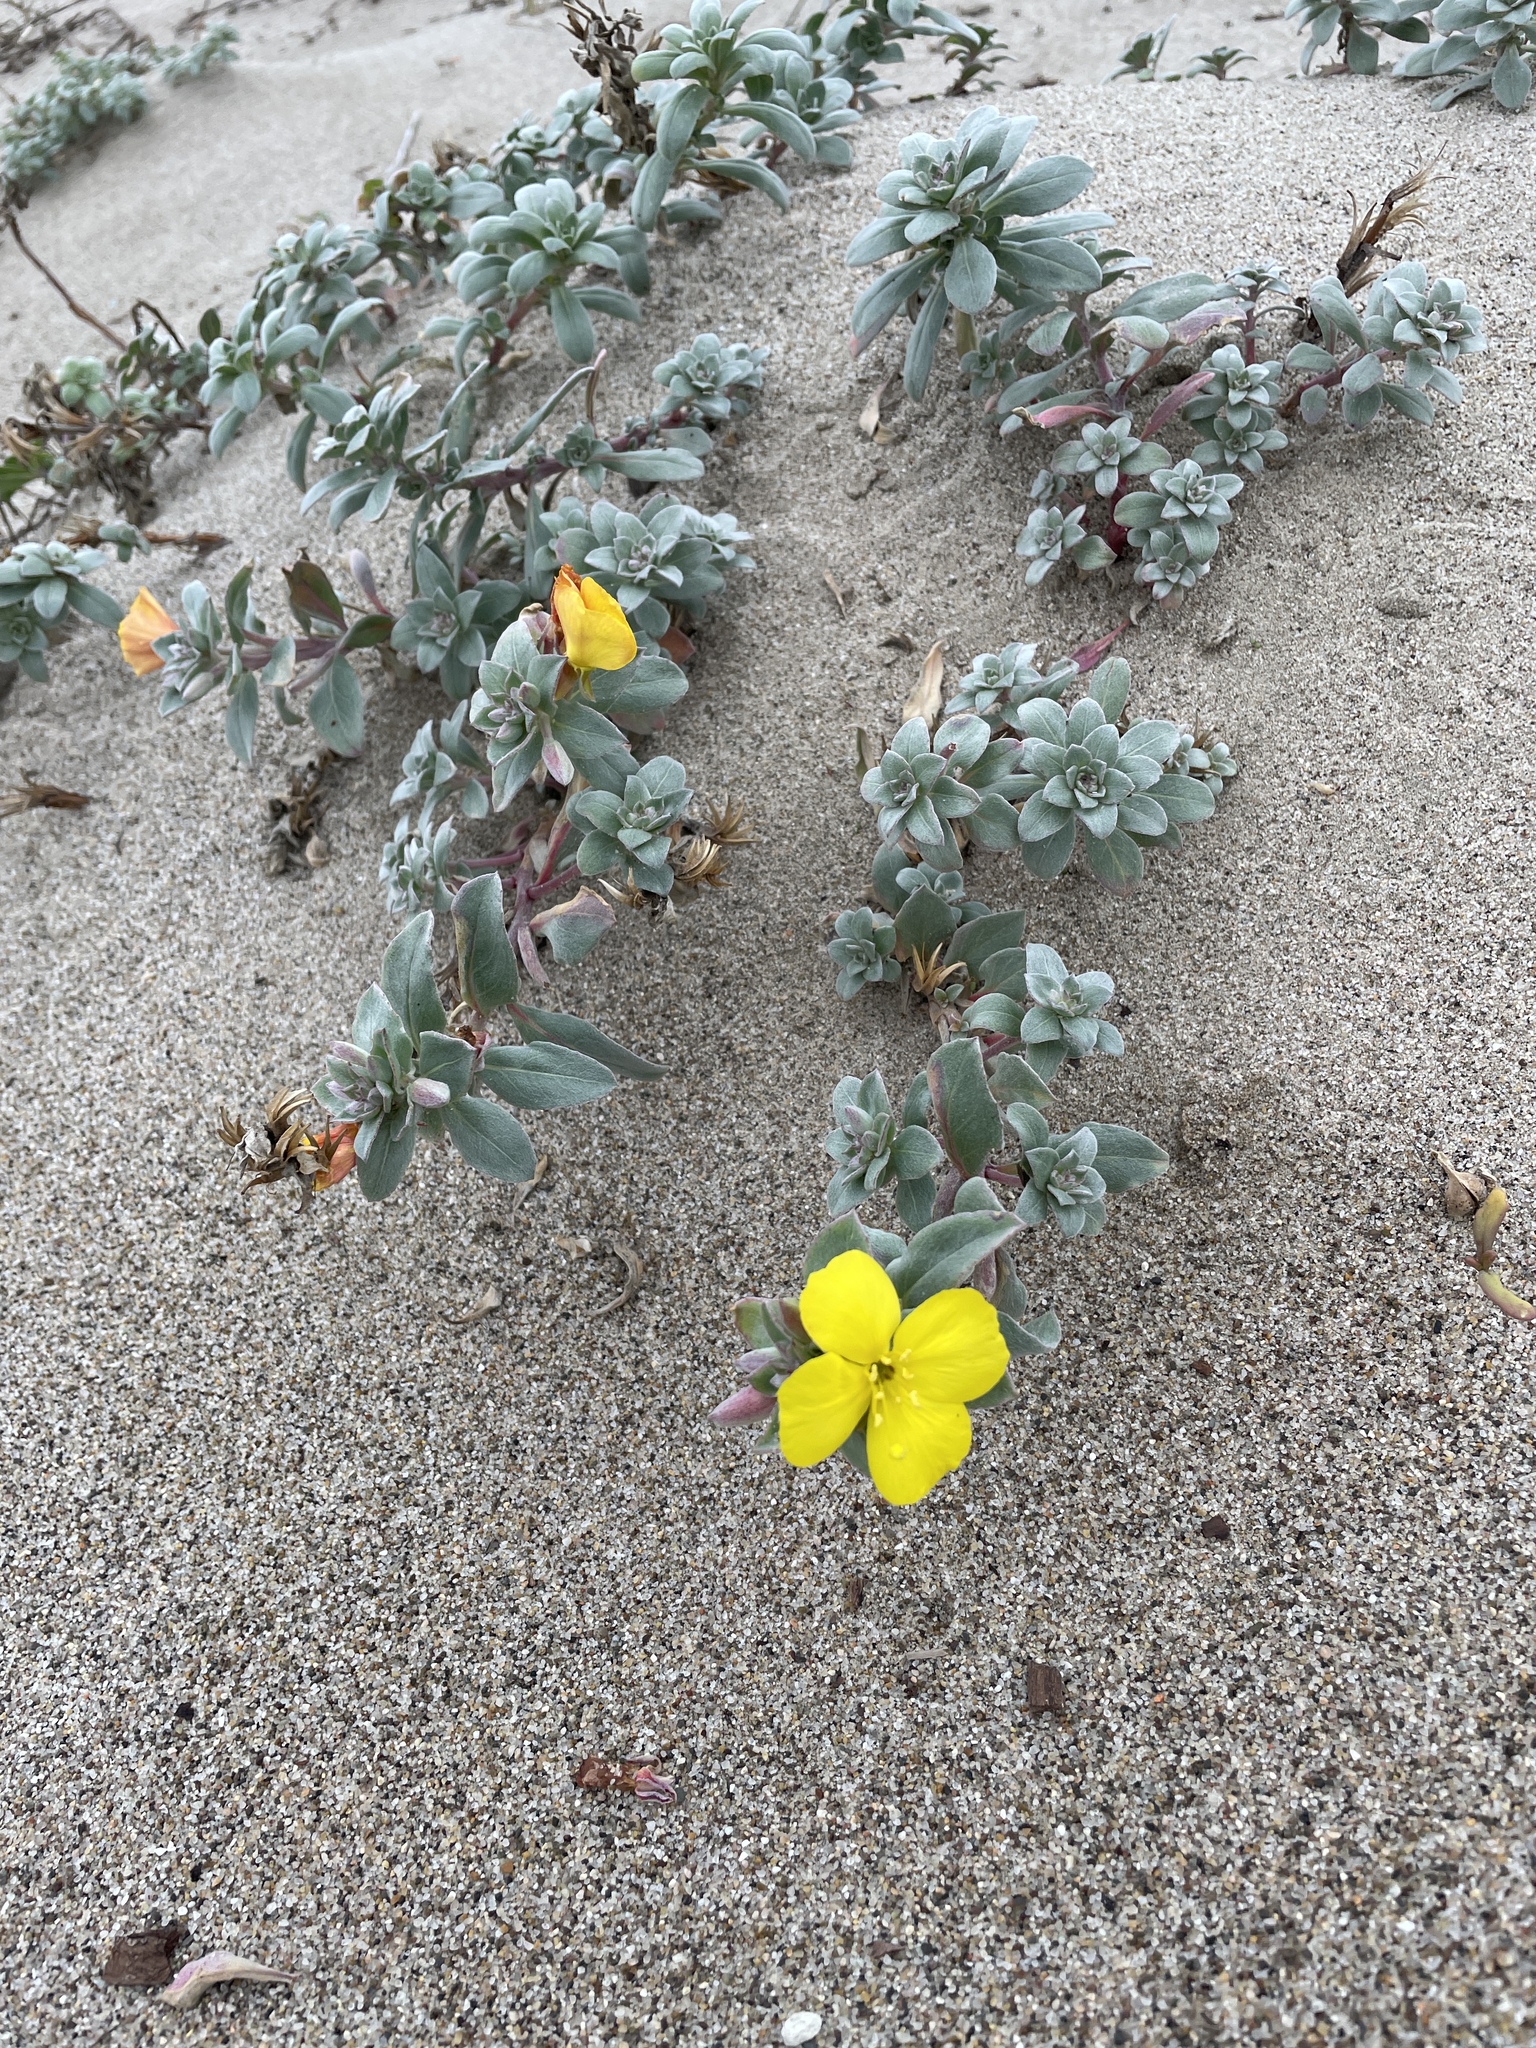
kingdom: Plantae
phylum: Tracheophyta
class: Magnoliopsida
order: Myrtales
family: Onagraceae
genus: Camissoniopsis
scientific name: Camissoniopsis cheiranthifolia
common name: Beach suncup
